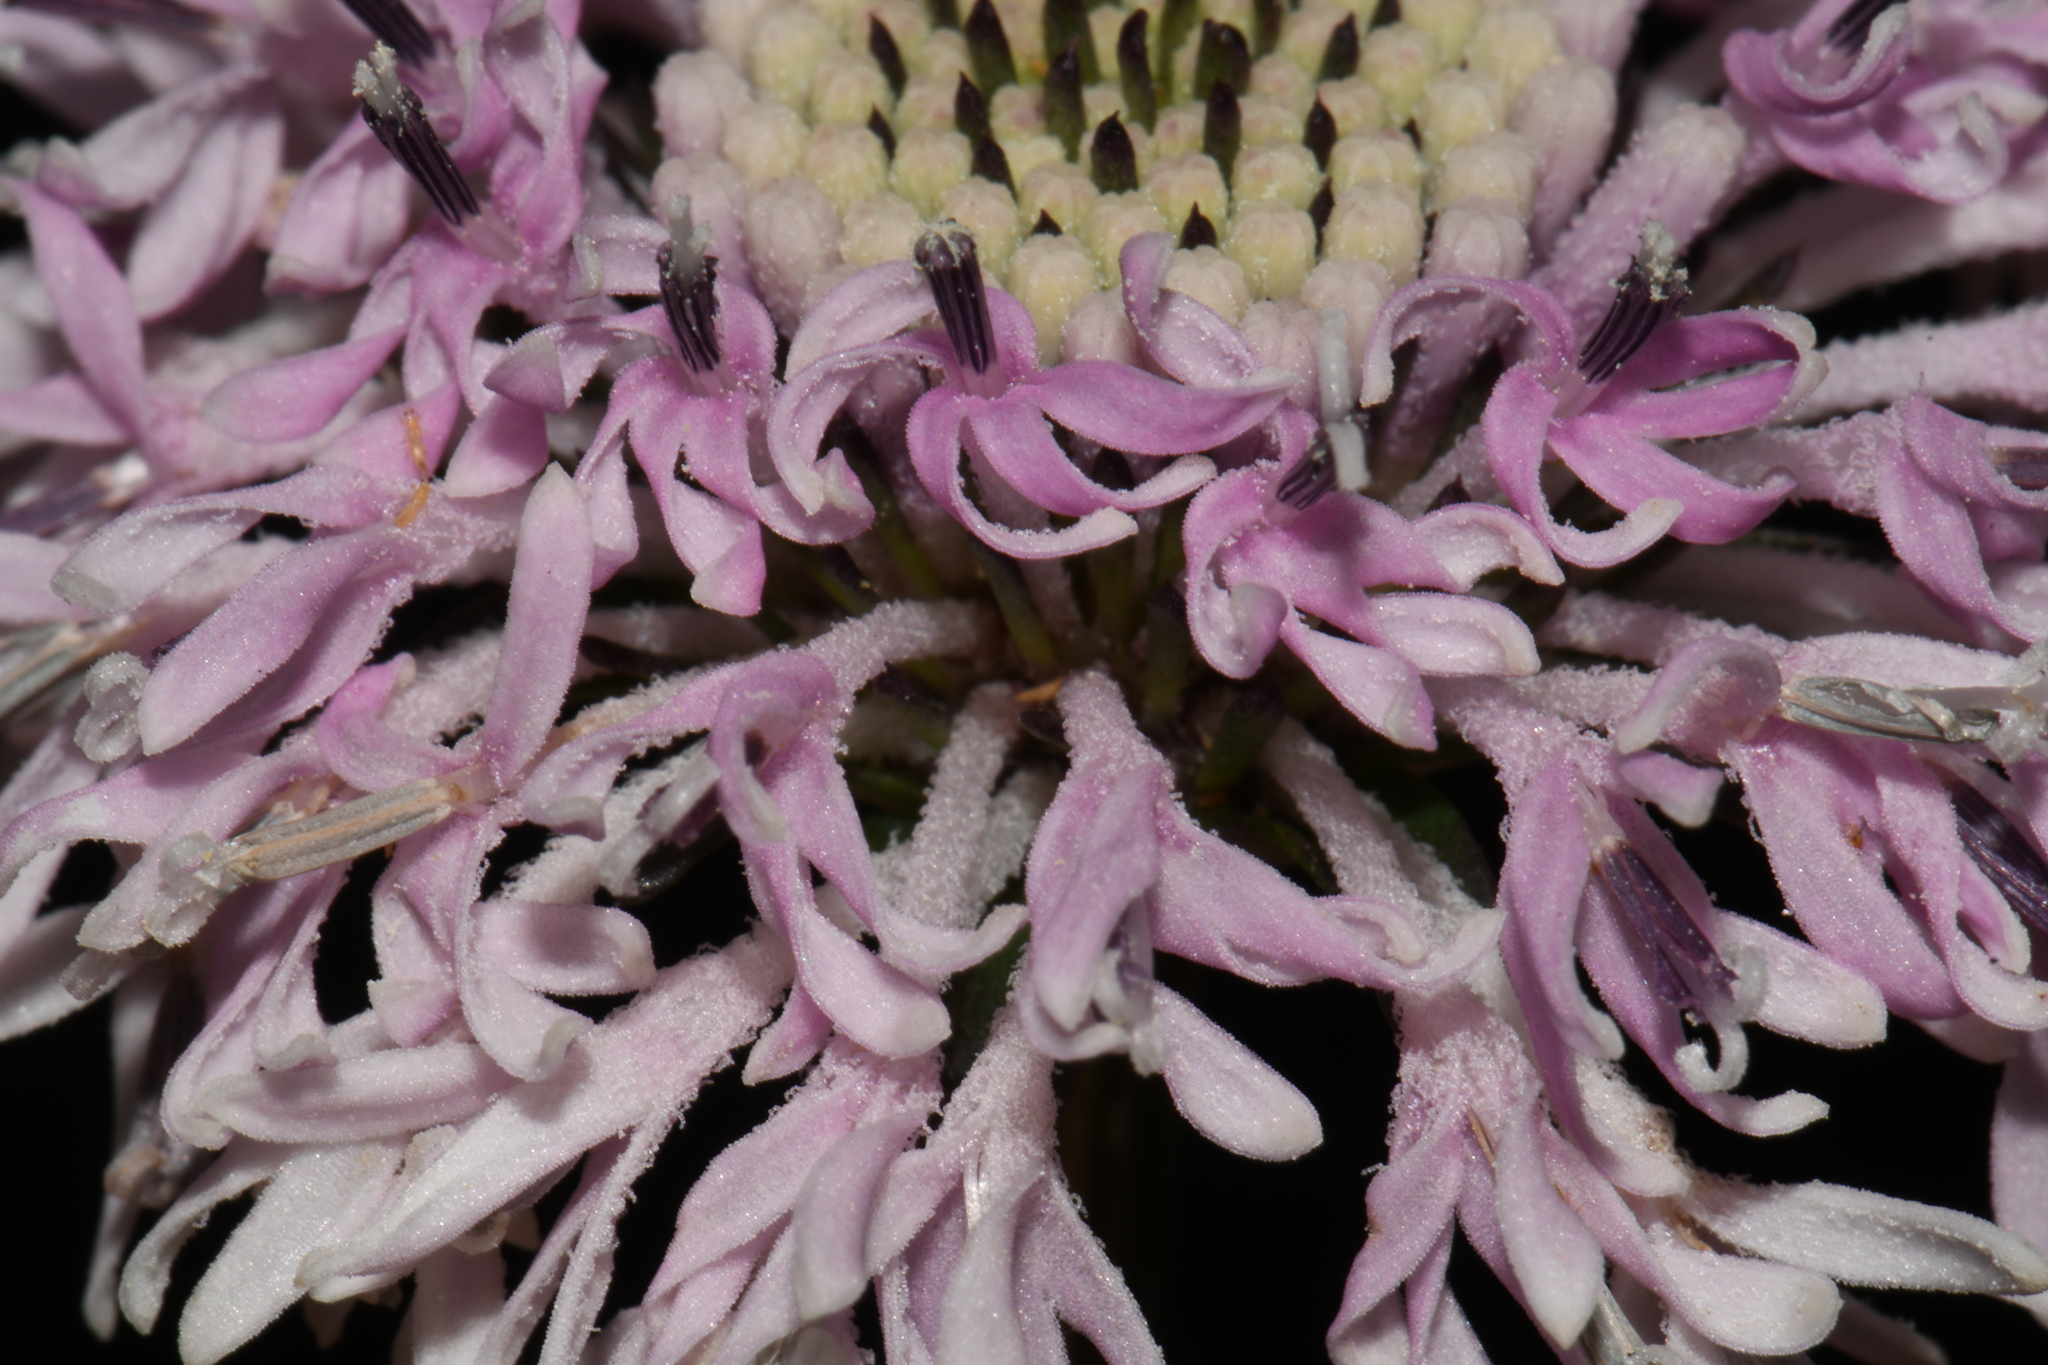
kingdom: Plantae
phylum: Tracheophyta
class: Magnoliopsida
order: Asterales
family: Asteraceae
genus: Marshallia
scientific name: Marshallia obovata
